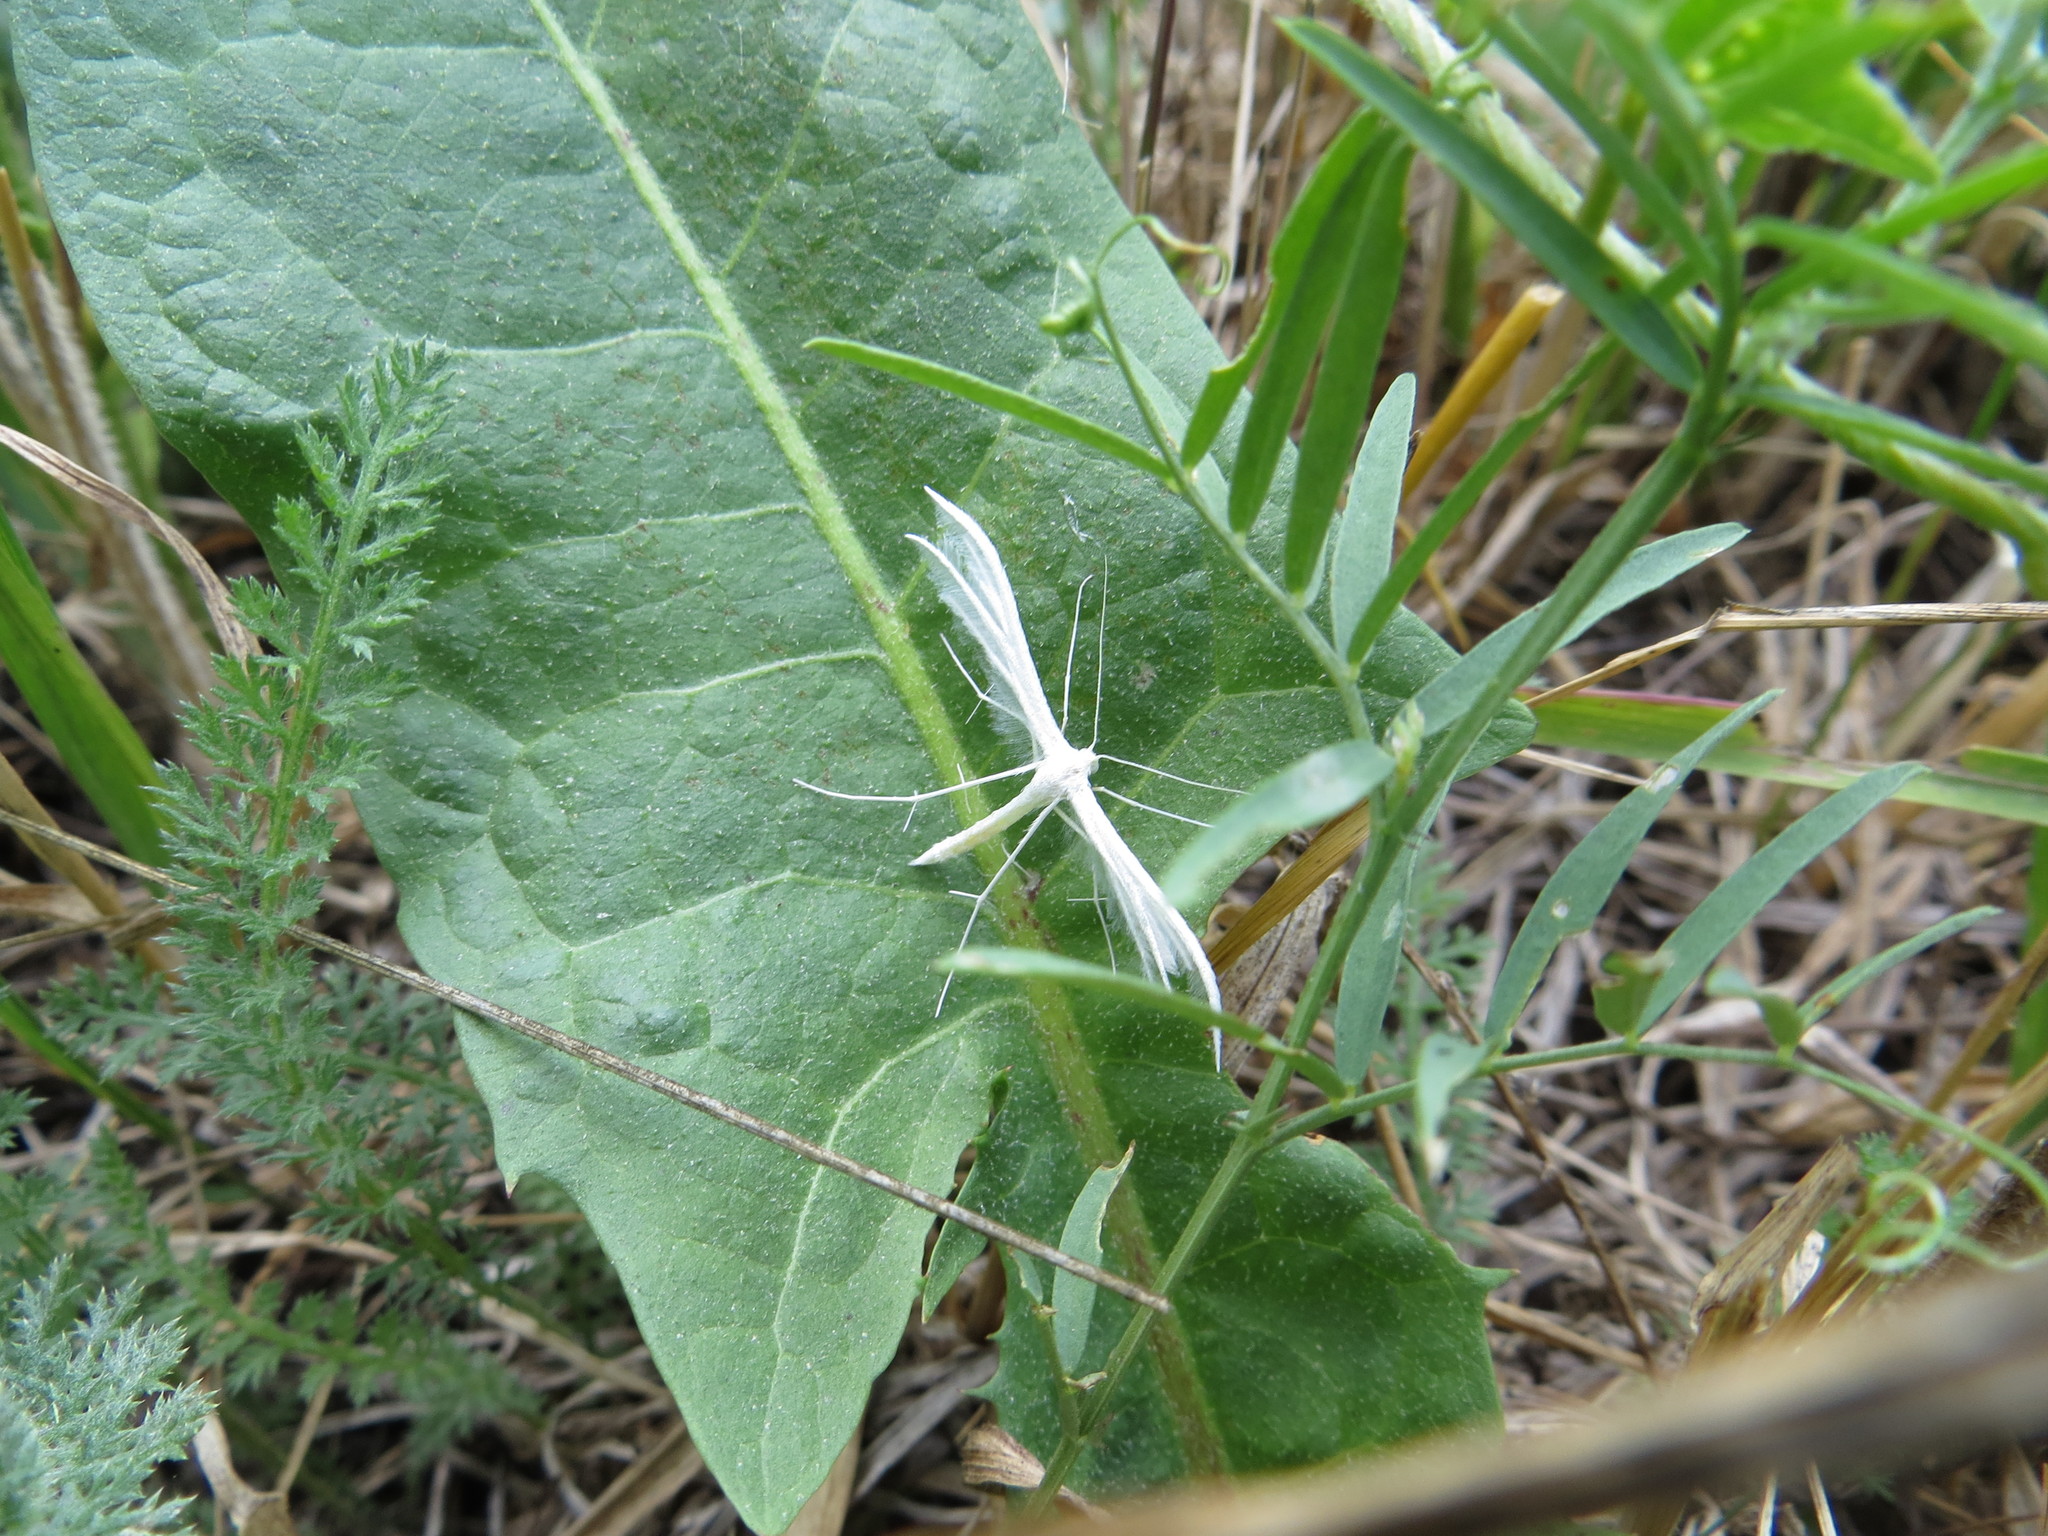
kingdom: Animalia
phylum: Arthropoda
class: Insecta
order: Lepidoptera
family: Pterophoridae
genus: Pterophorus
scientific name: Pterophorus pentadactyla
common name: White plume moth
